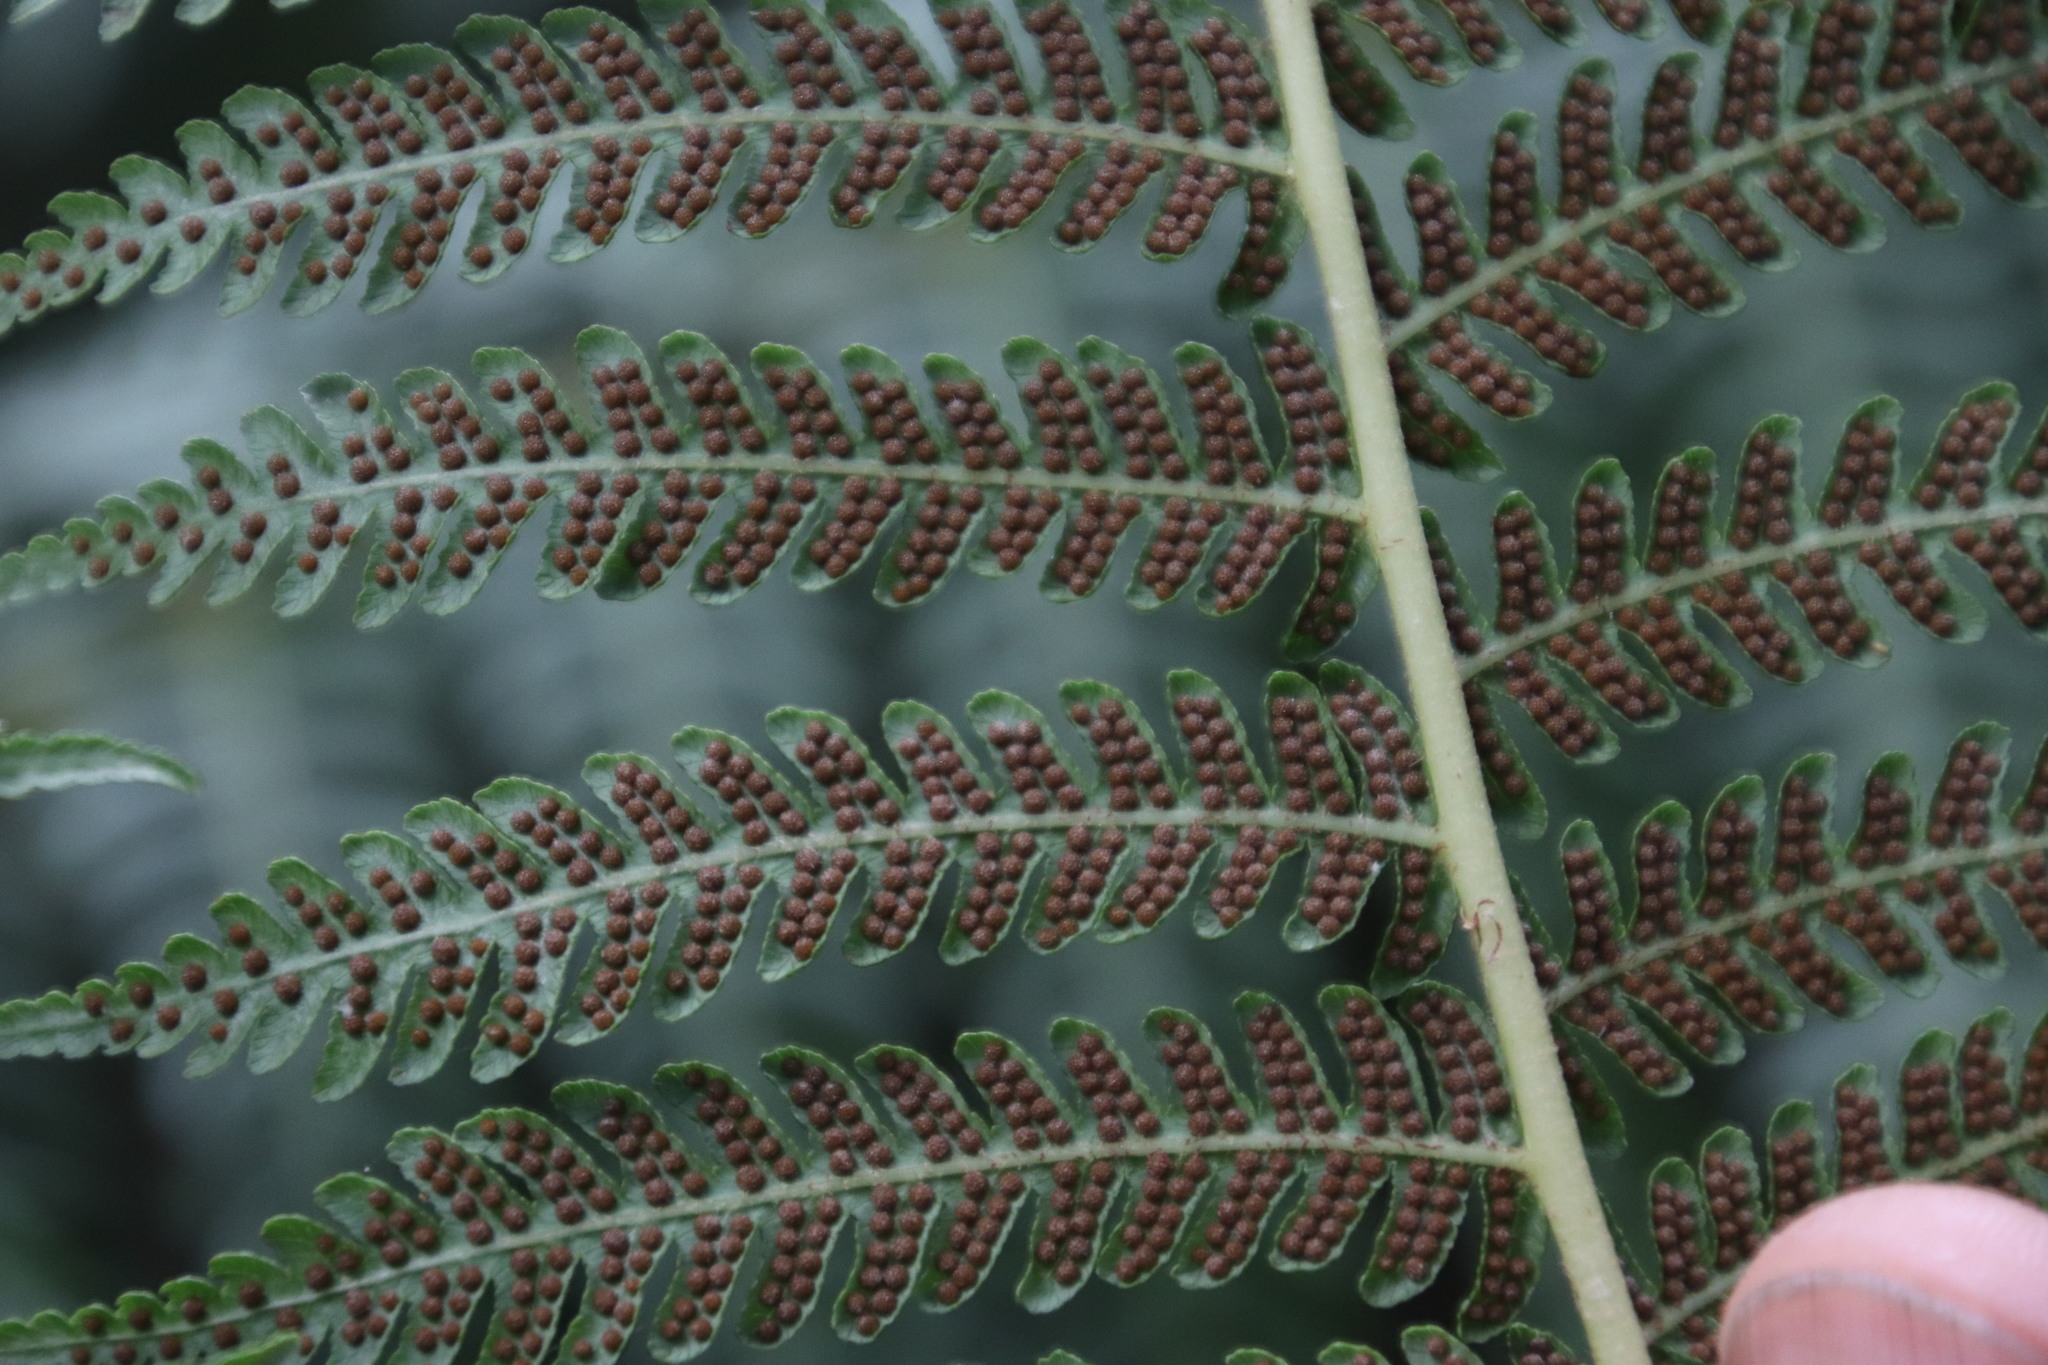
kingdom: Plantae
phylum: Tracheophyta
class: Polypodiopsida
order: Cyatheales
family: Cyatheaceae
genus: Sphaeropteris
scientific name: Sphaeropteris cooperi
